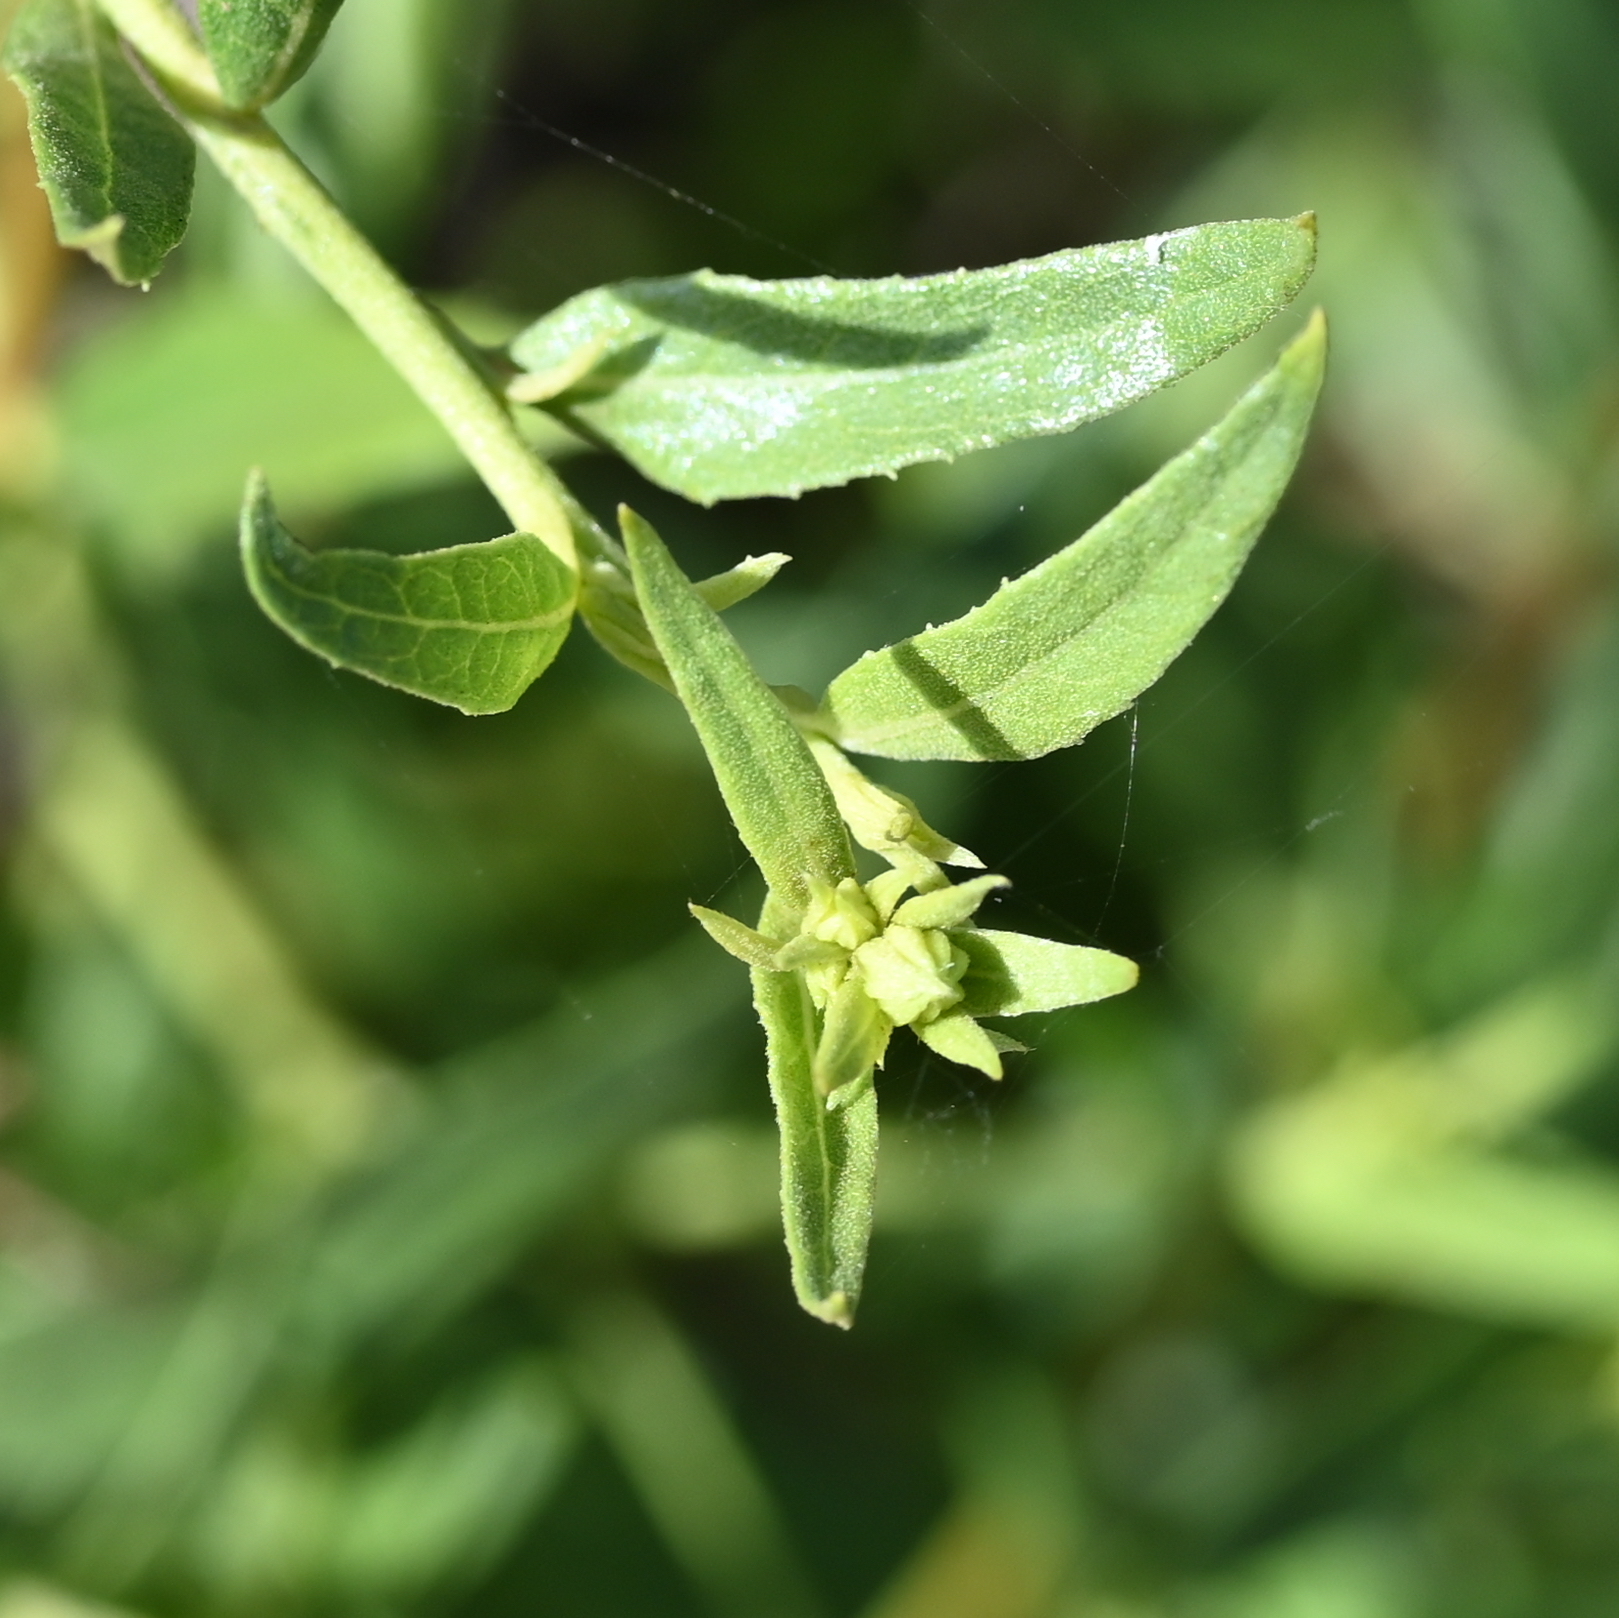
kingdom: Plantae
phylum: Tracheophyta
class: Magnoliopsida
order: Asterales
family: Asteraceae
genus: Trixis
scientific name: Trixis californica
